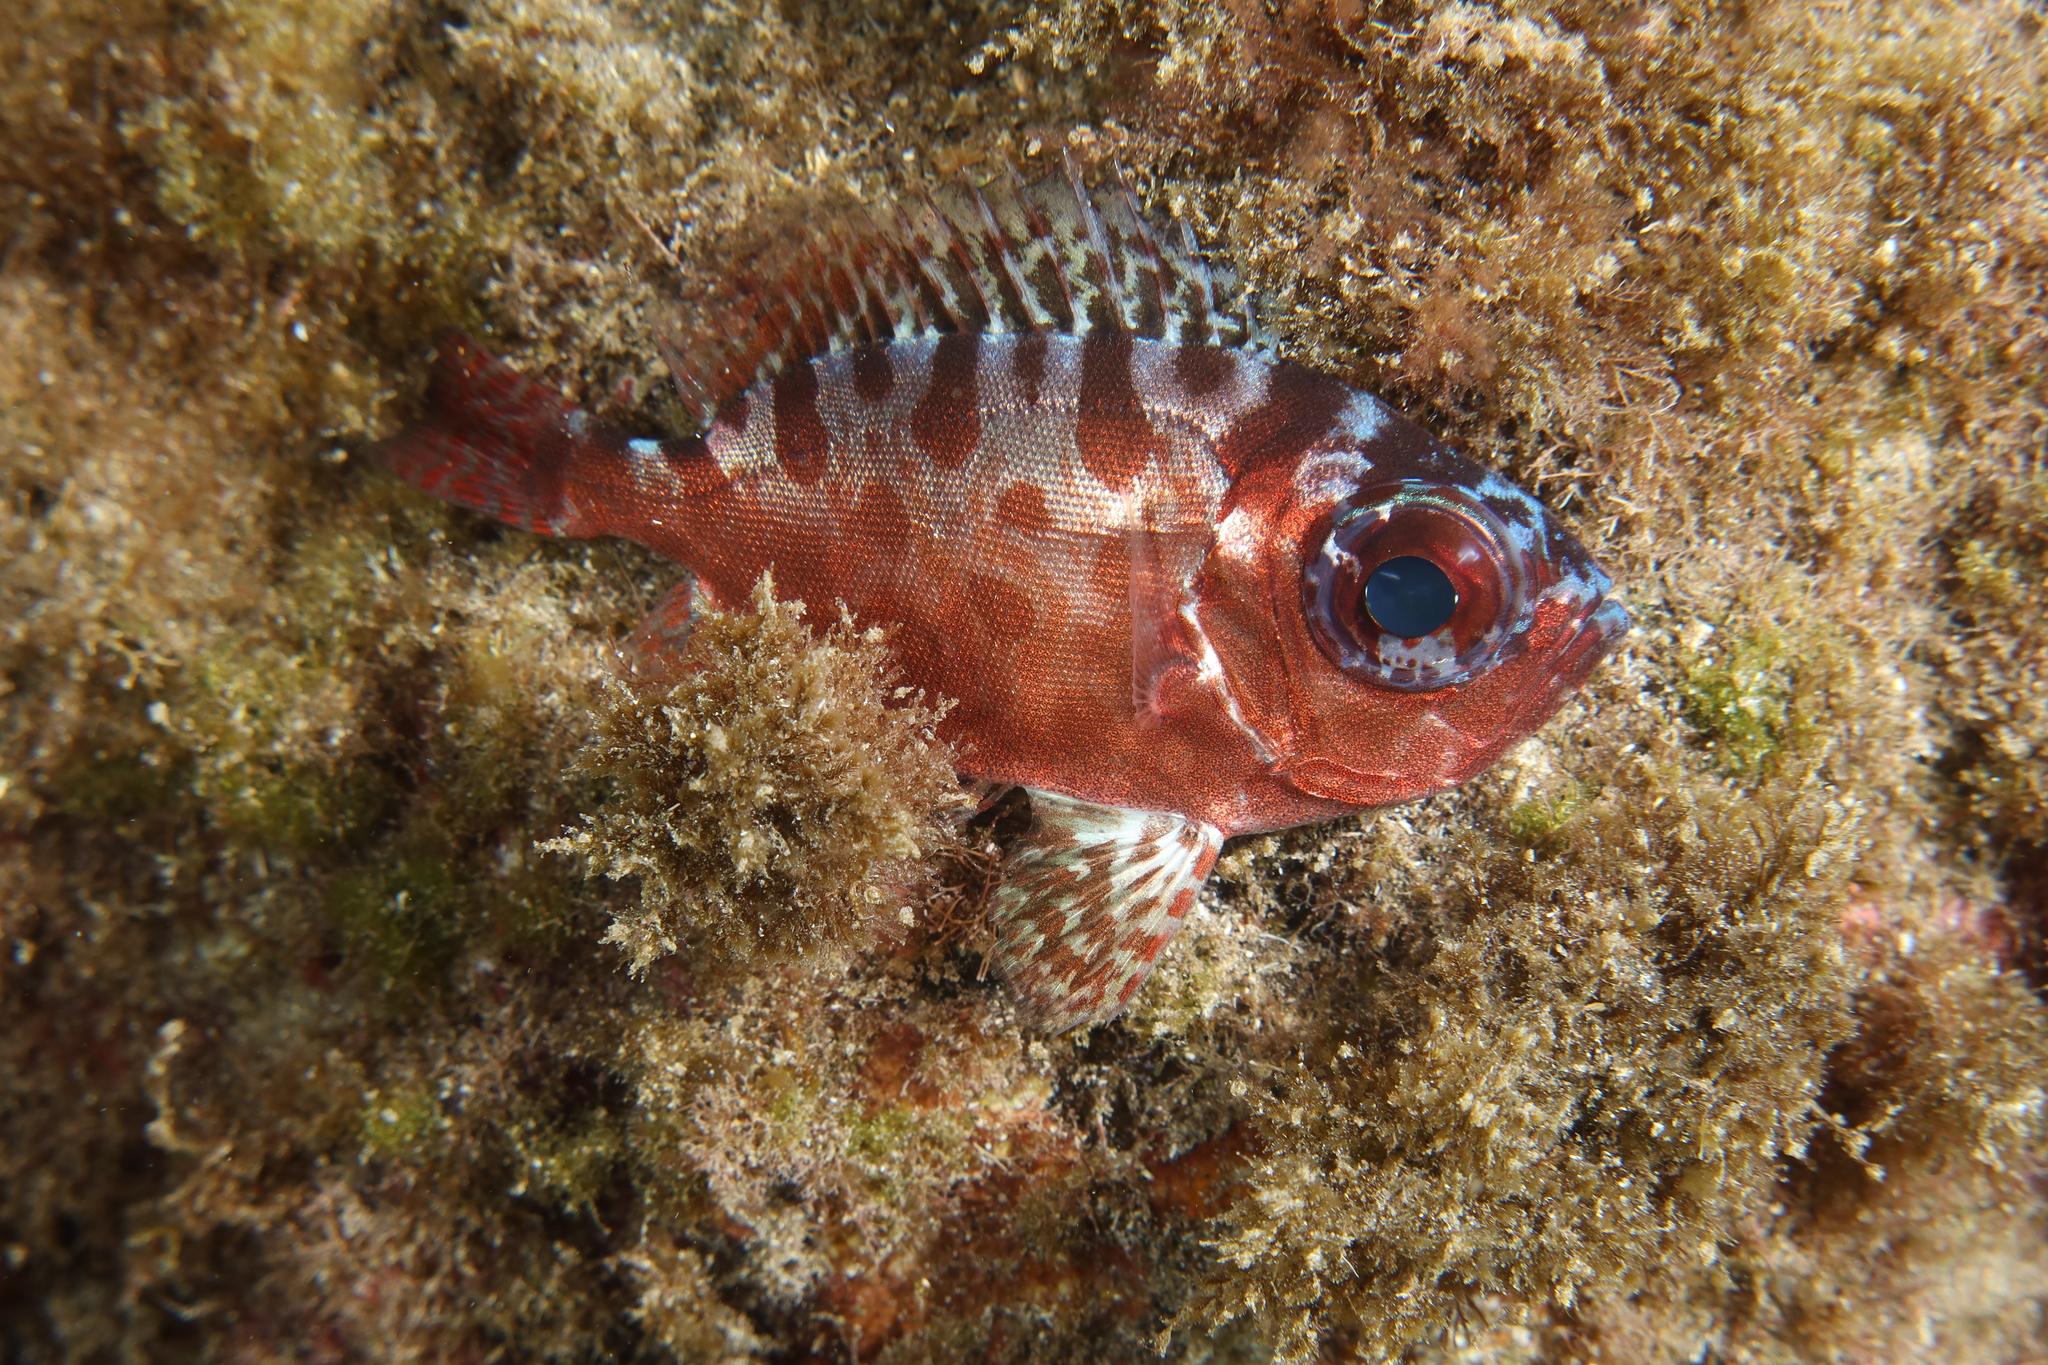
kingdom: Animalia
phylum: Chordata
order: Perciformes
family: Priacanthidae
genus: Heteropriacanthus
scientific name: Heteropriacanthus fulgens
